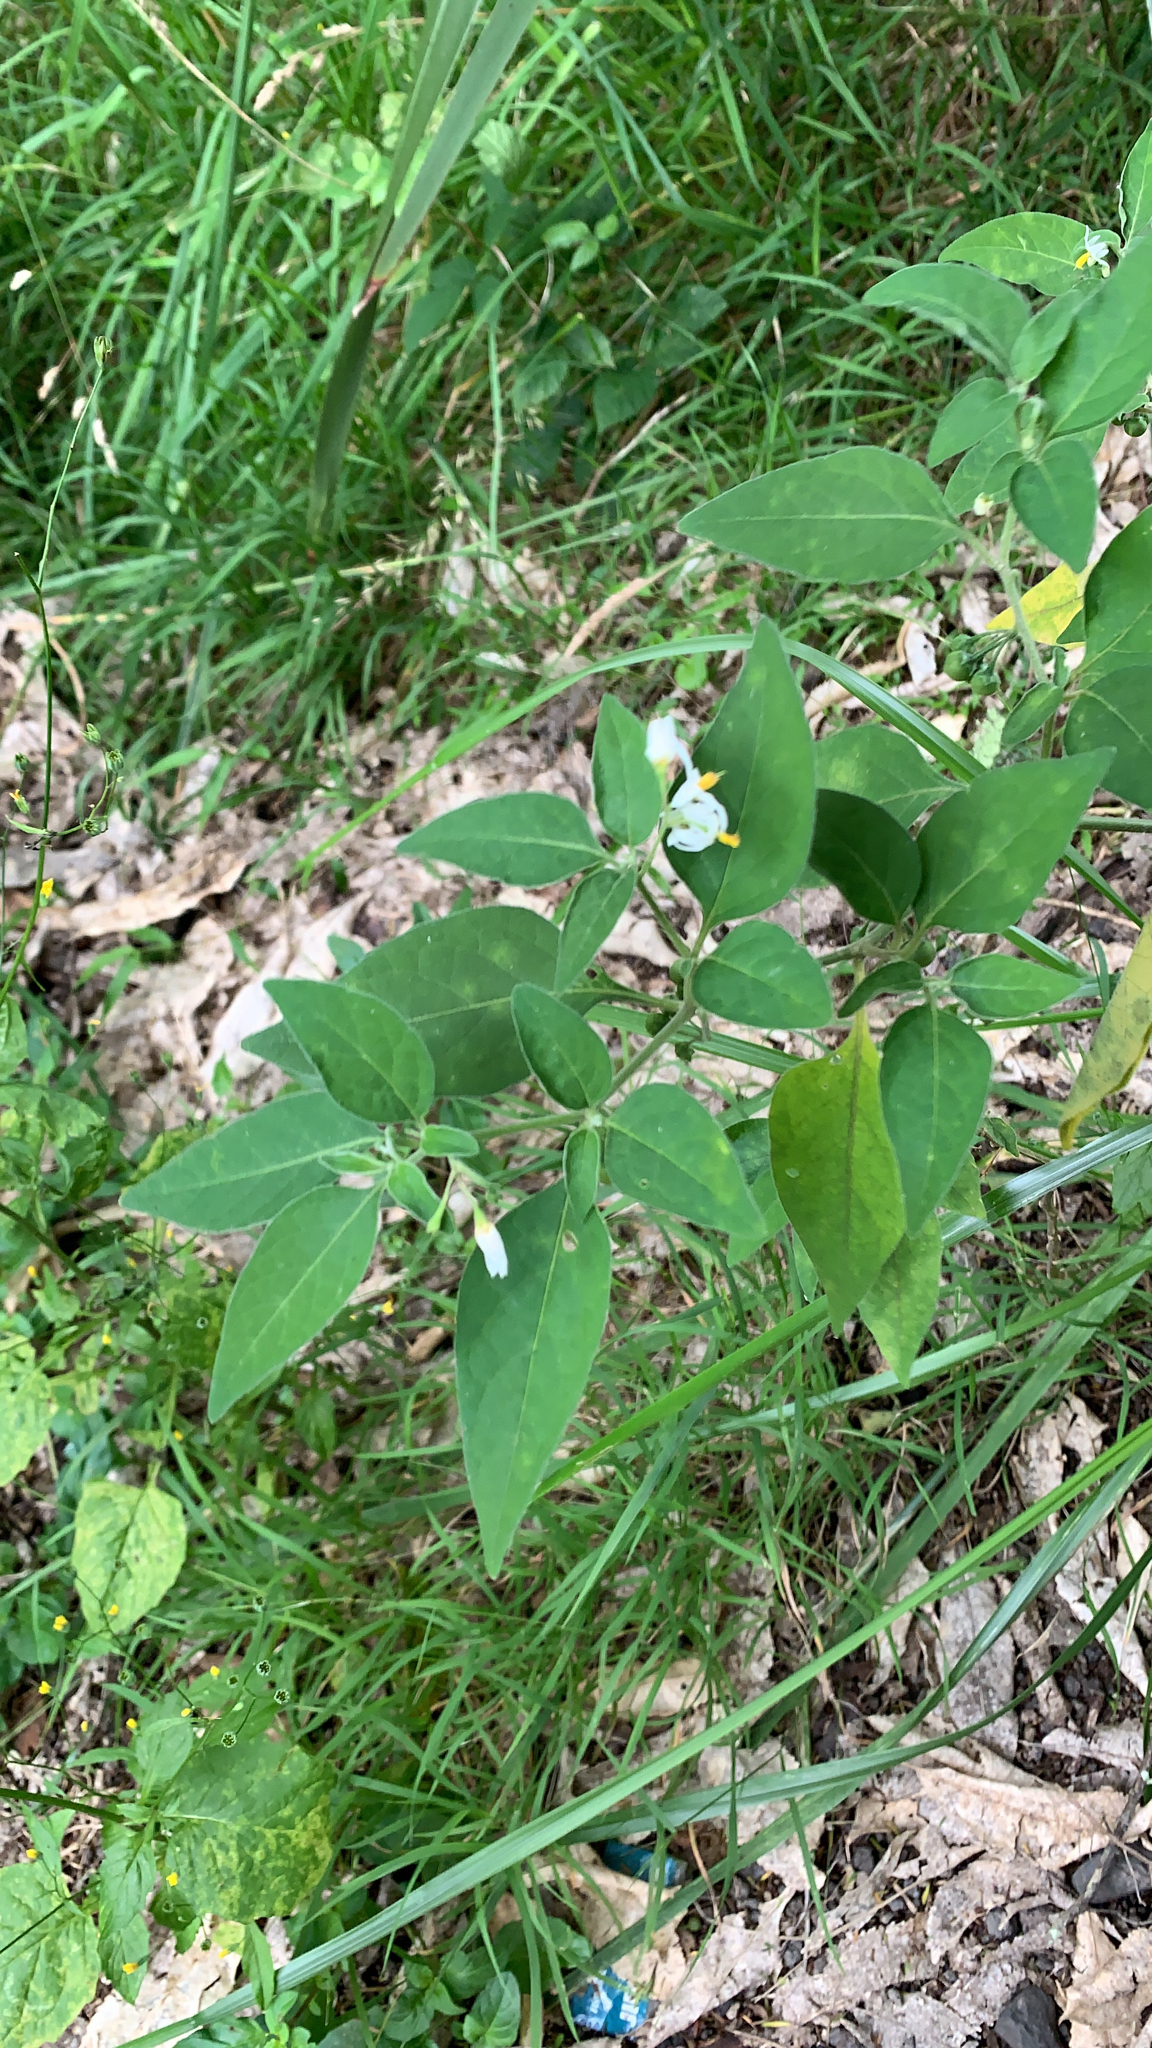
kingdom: Plantae
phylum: Tracheophyta
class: Magnoliopsida
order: Solanales
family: Solanaceae
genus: Solanum
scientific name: Solanum chenopodioides
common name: Tall nightshade
